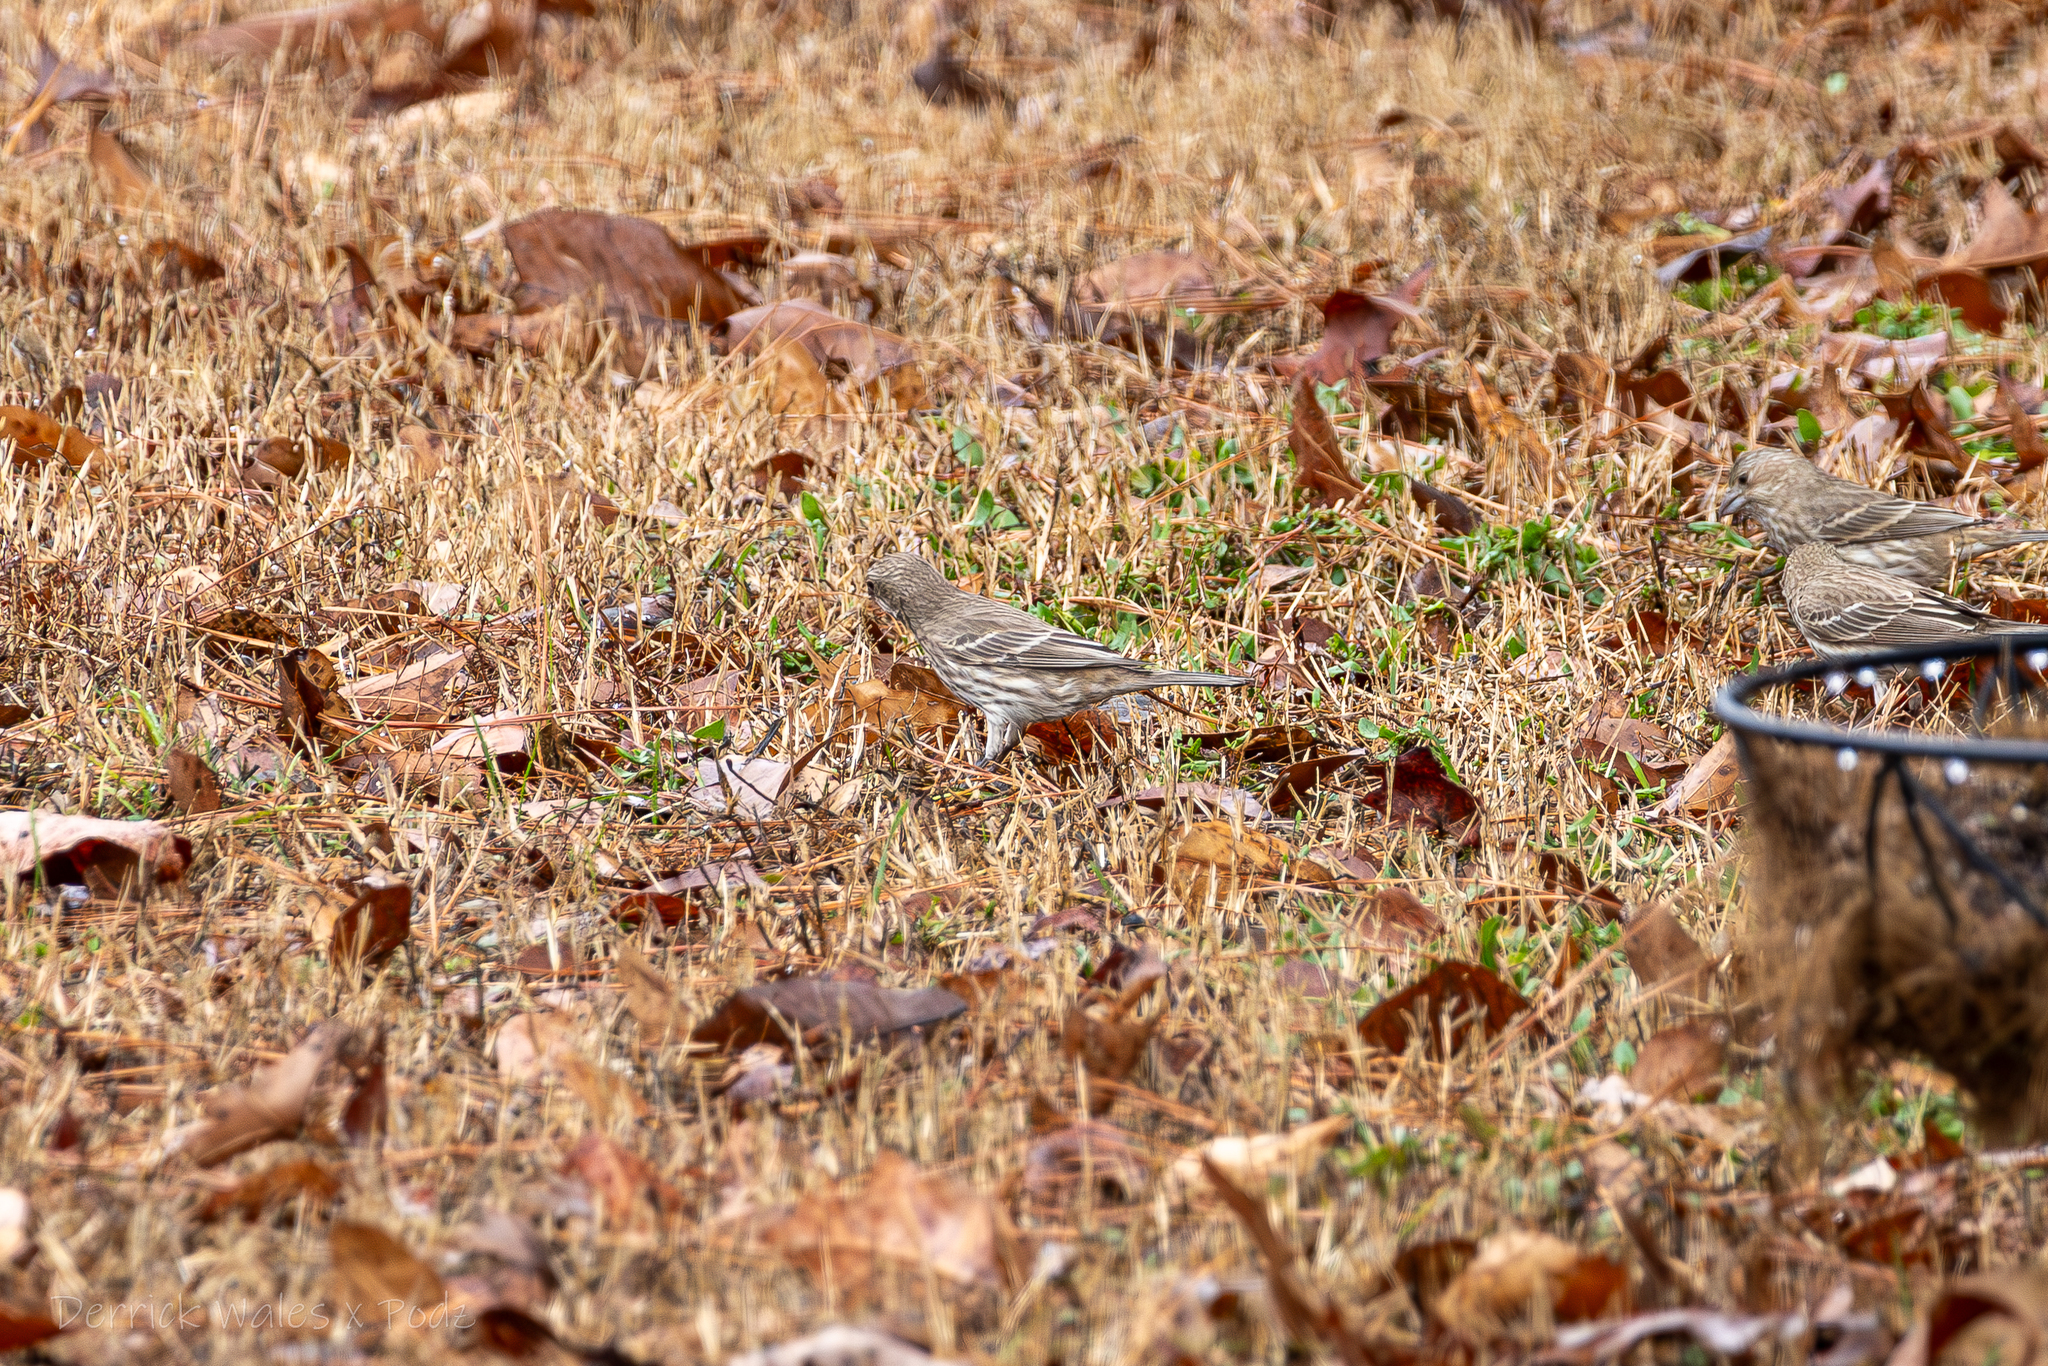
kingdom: Animalia
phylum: Chordata
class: Aves
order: Passeriformes
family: Fringillidae
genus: Haemorhous
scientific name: Haemorhous mexicanus
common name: House finch
